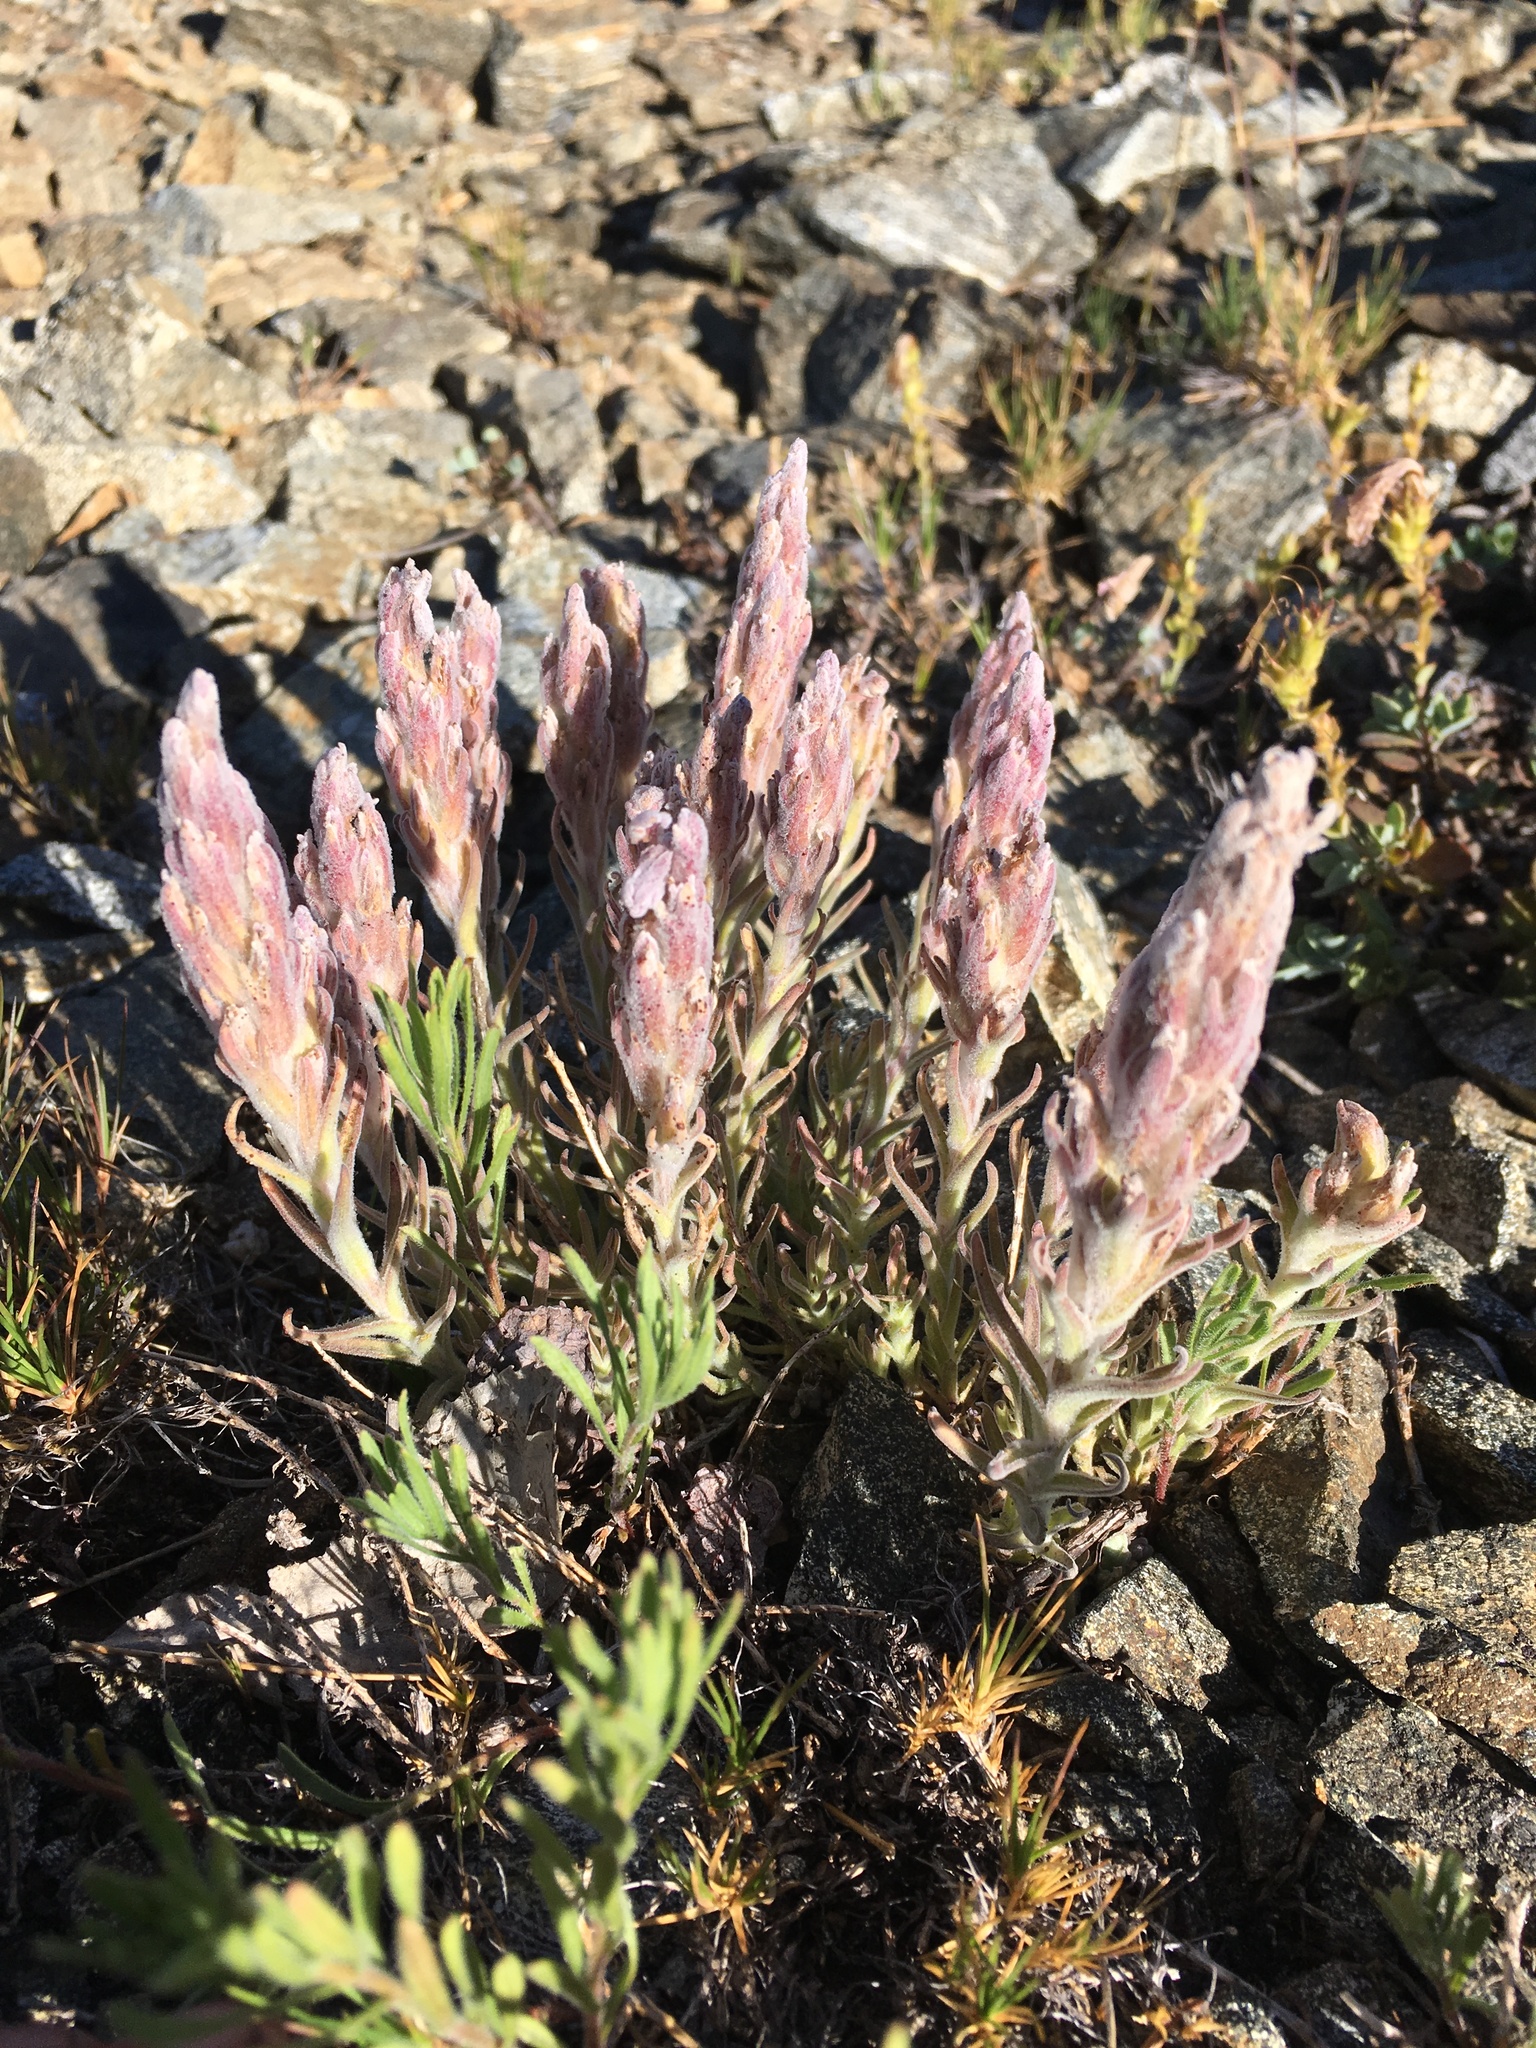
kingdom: Plantae
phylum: Tracheophyta
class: Magnoliopsida
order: Lamiales
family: Orobanchaceae
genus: Castilleja
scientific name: Castilleja schizotricha
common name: Split-hair indian paintbrush
